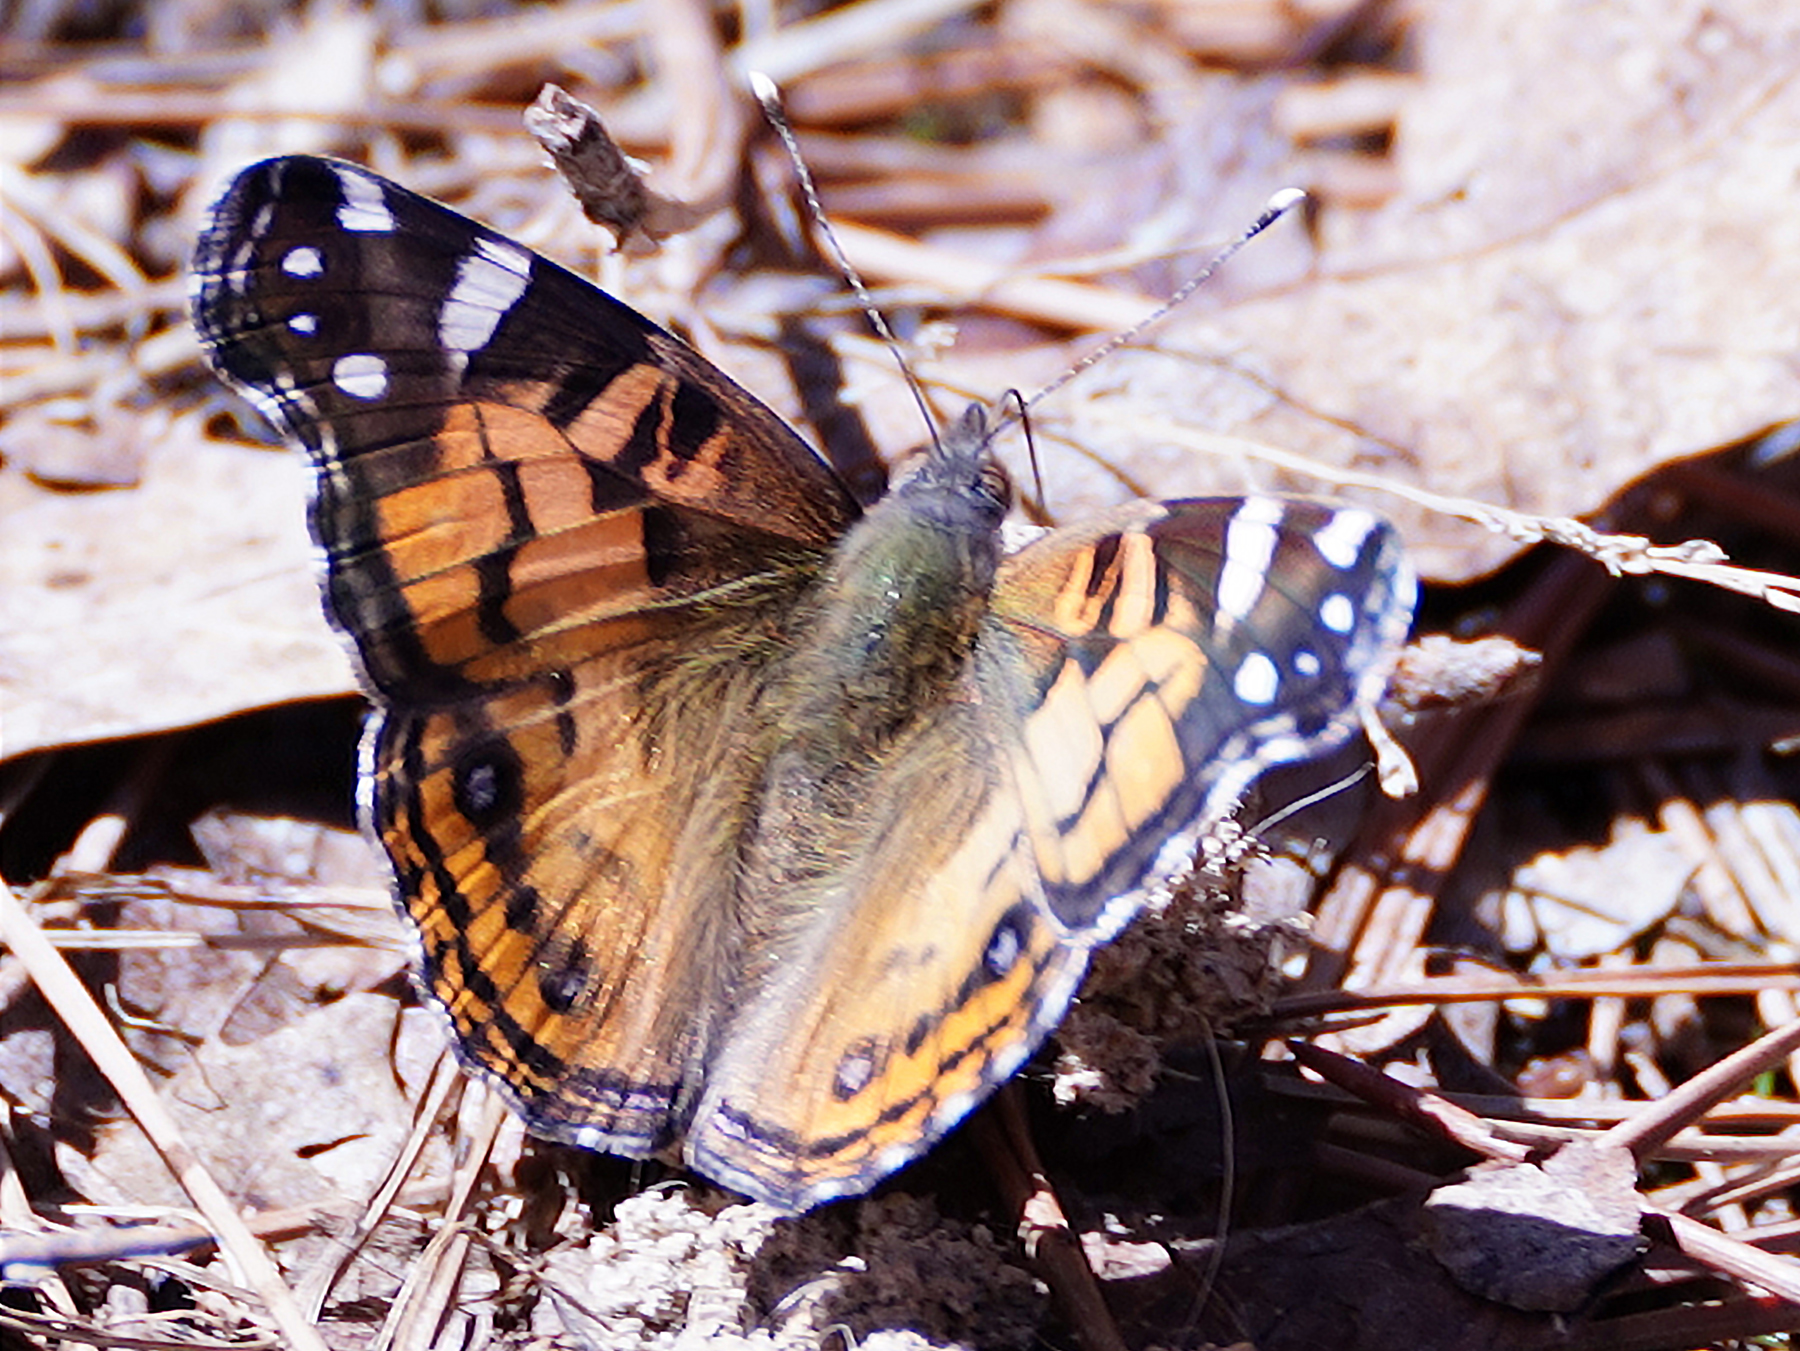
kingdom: Animalia
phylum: Arthropoda
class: Insecta
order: Lepidoptera
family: Nymphalidae
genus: Vanessa
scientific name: Vanessa virginiensis
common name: American lady
